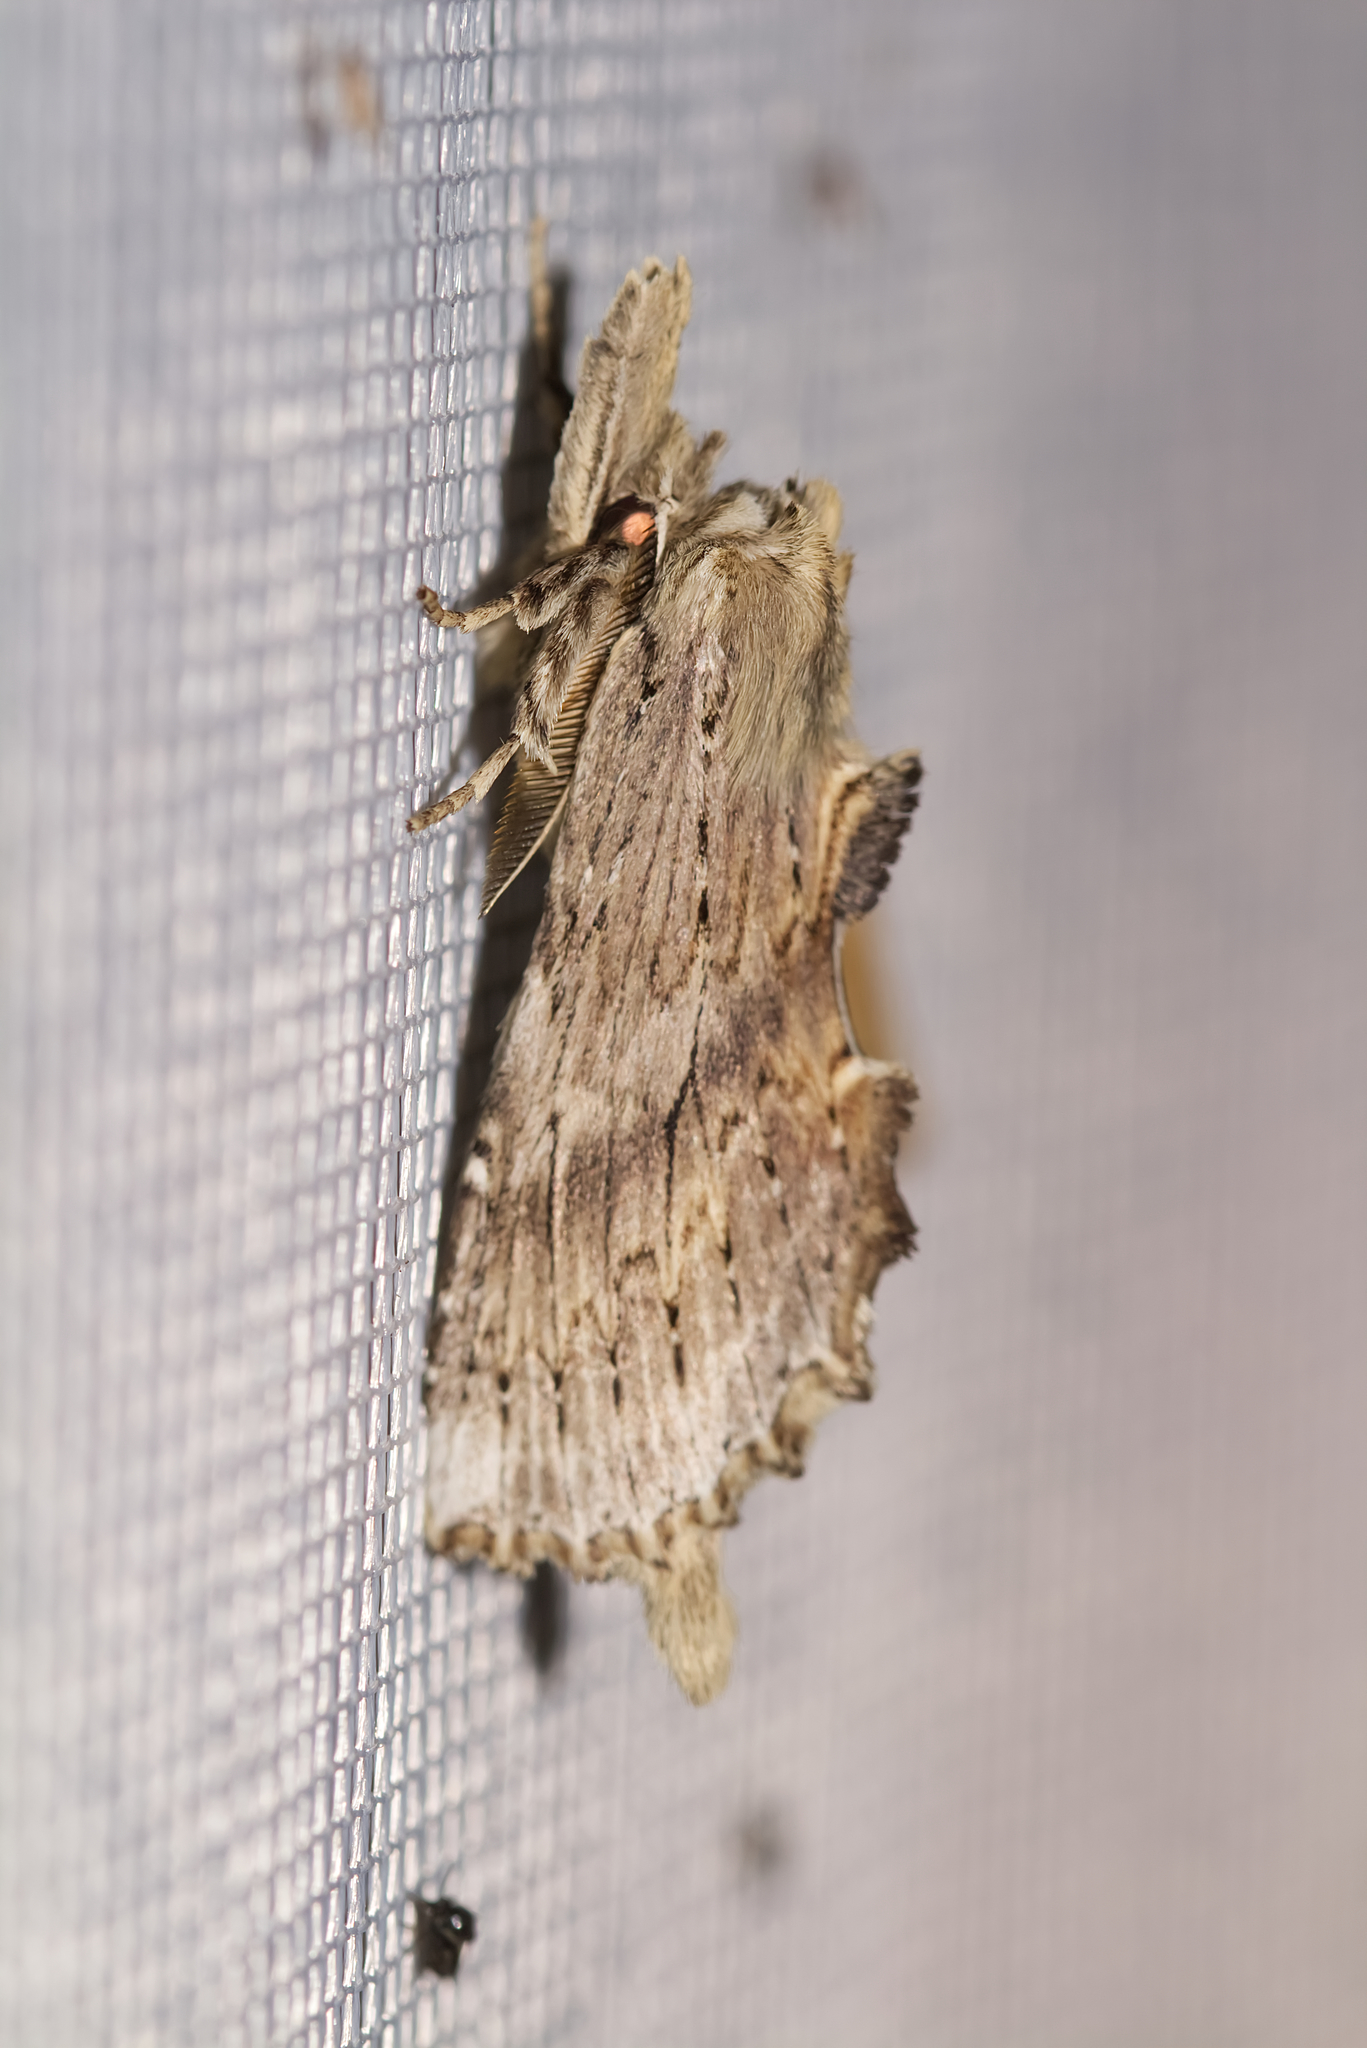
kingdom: Animalia
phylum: Arthropoda
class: Insecta
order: Lepidoptera
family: Notodontidae
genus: Pterostoma
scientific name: Pterostoma palpina
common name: Pale prominent
